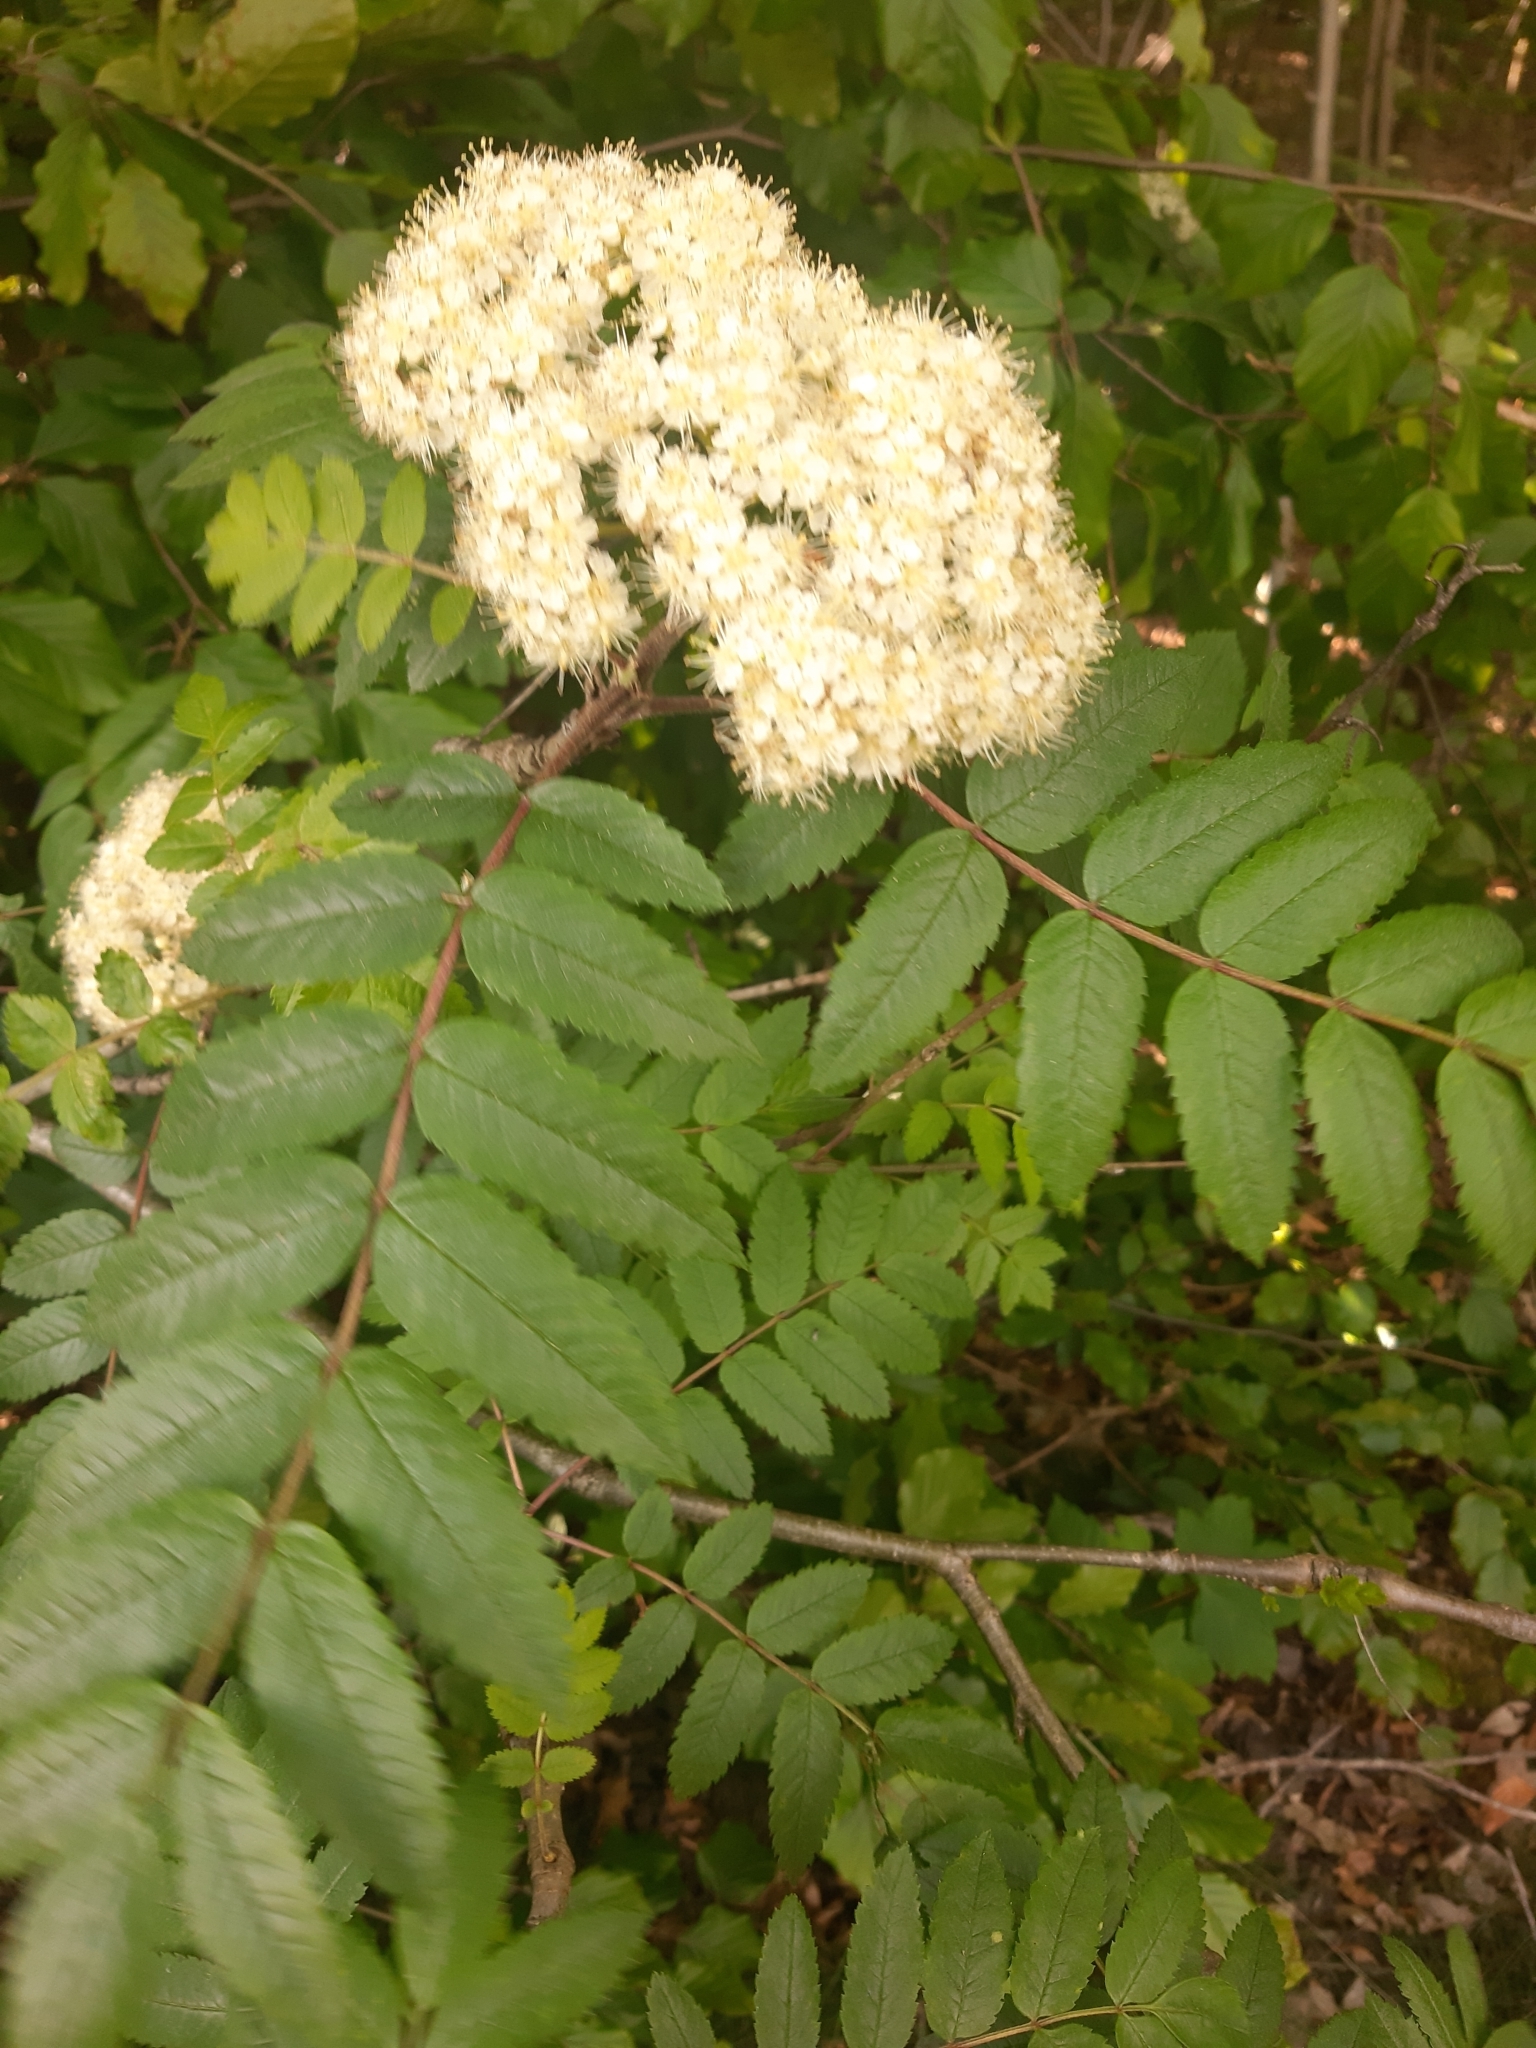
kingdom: Plantae
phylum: Tracheophyta
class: Magnoliopsida
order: Rosales
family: Rosaceae
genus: Sorbus
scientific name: Sorbus aucuparia
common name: Rowan
